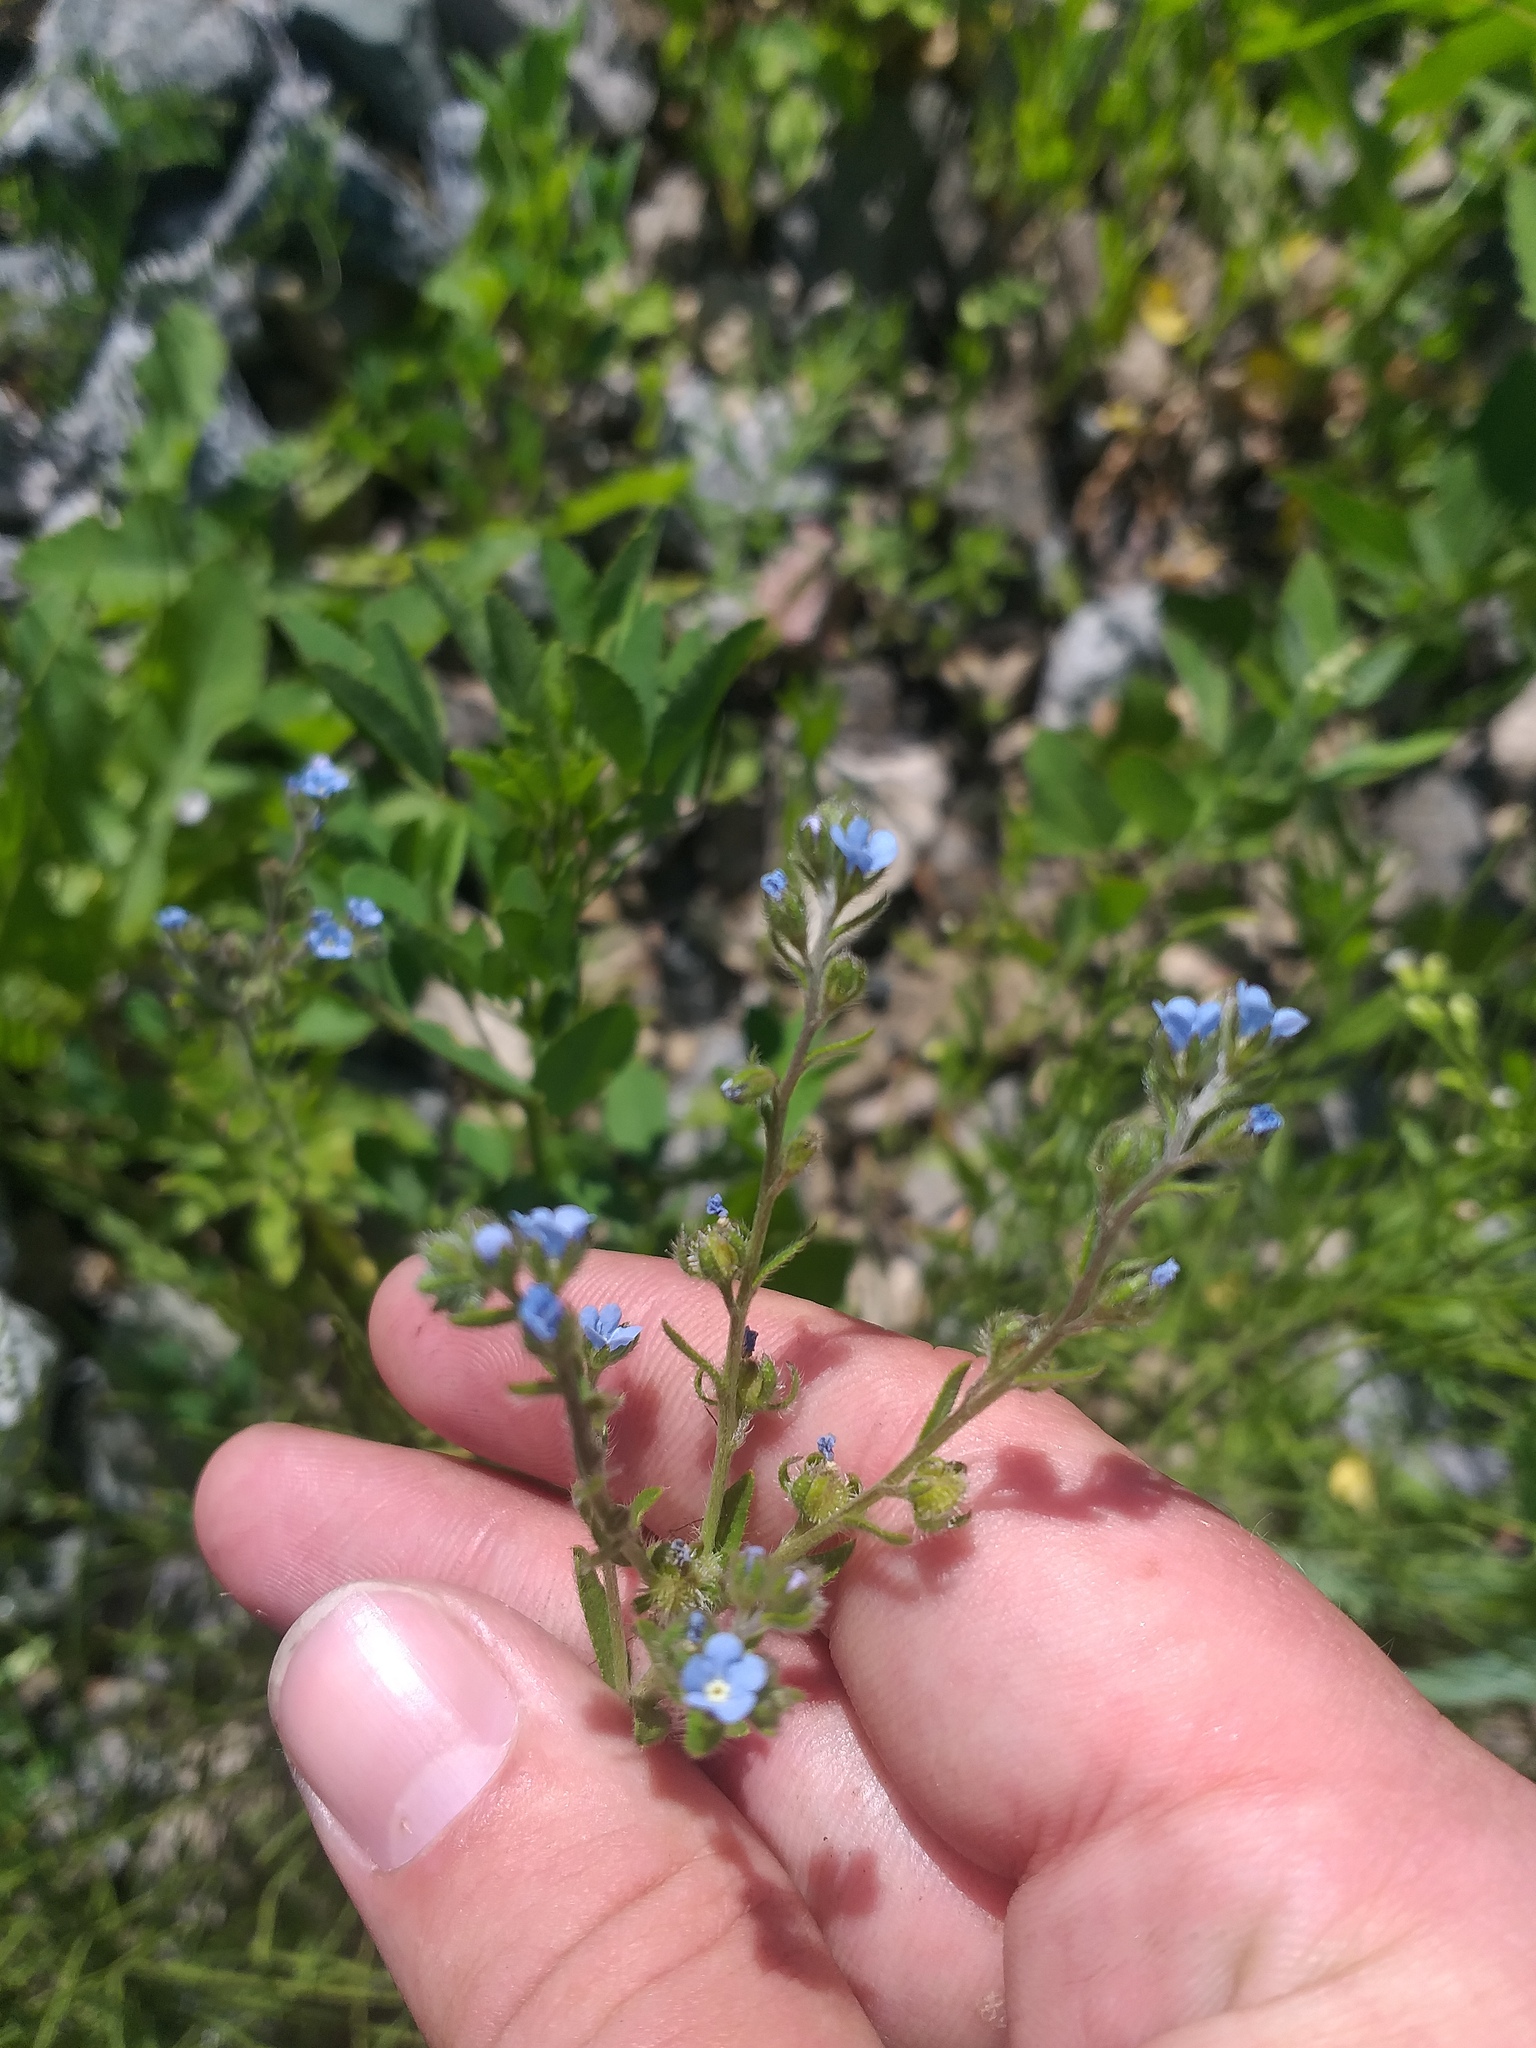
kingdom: Plantae
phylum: Tracheophyta
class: Magnoliopsida
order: Boraginales
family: Boraginaceae
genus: Lappula
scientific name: Lappula squarrosa
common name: European stickseed
